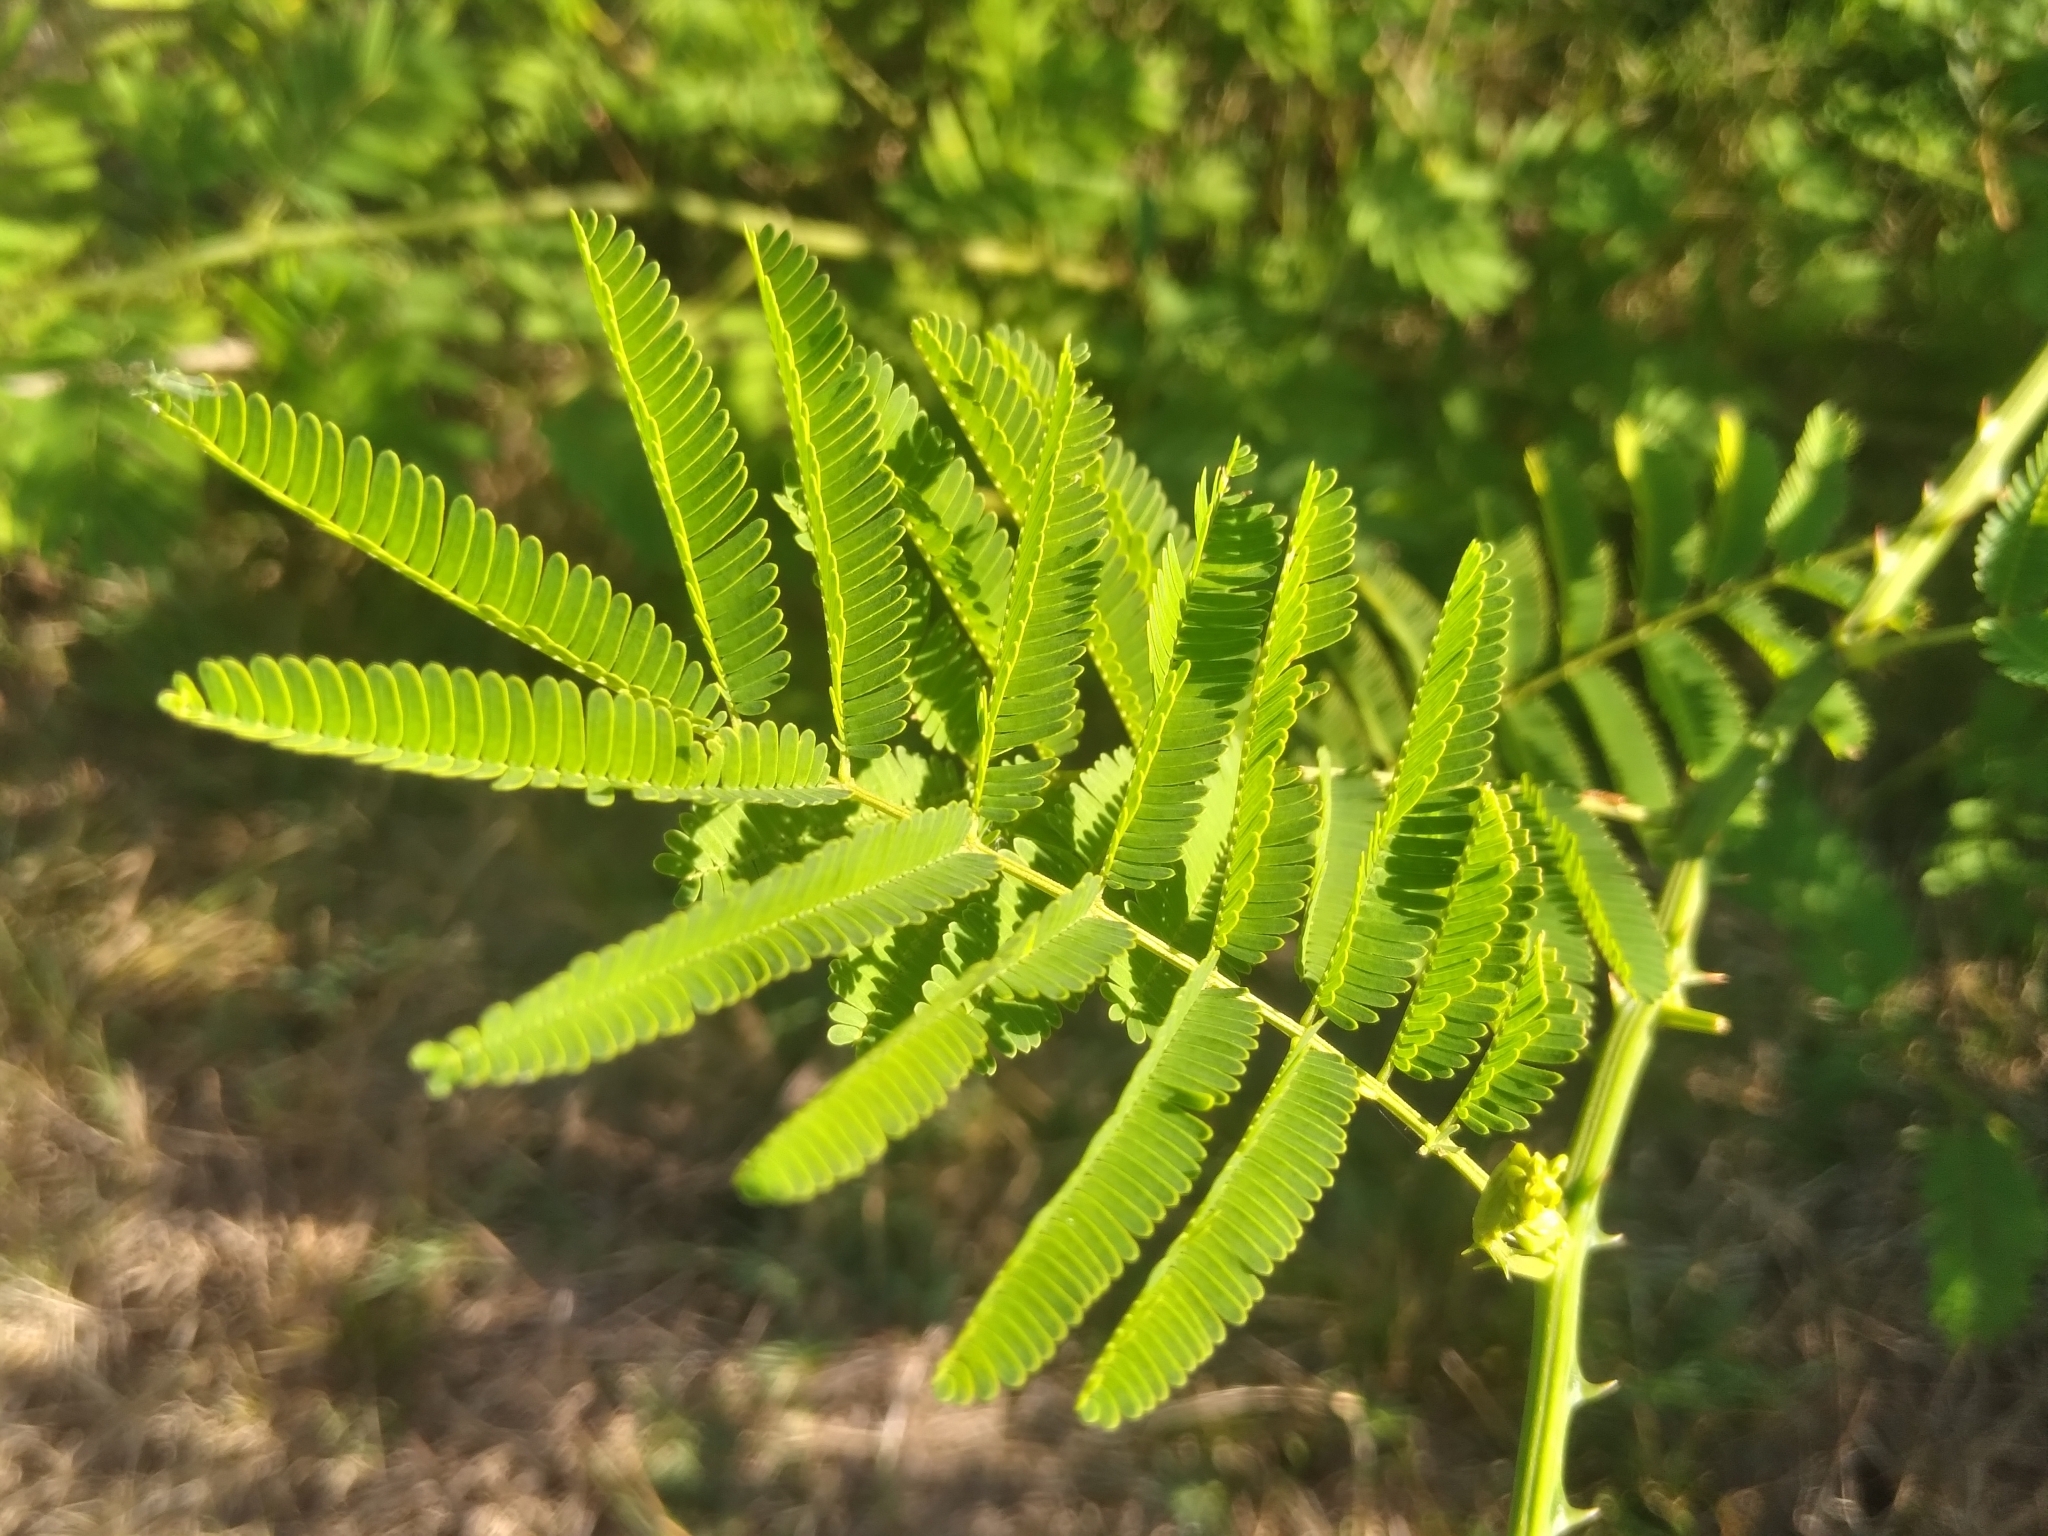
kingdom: Plantae
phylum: Tracheophyta
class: Magnoliopsida
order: Fabales
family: Fabaceae
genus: Senegalia
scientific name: Senegalia bonariensis
